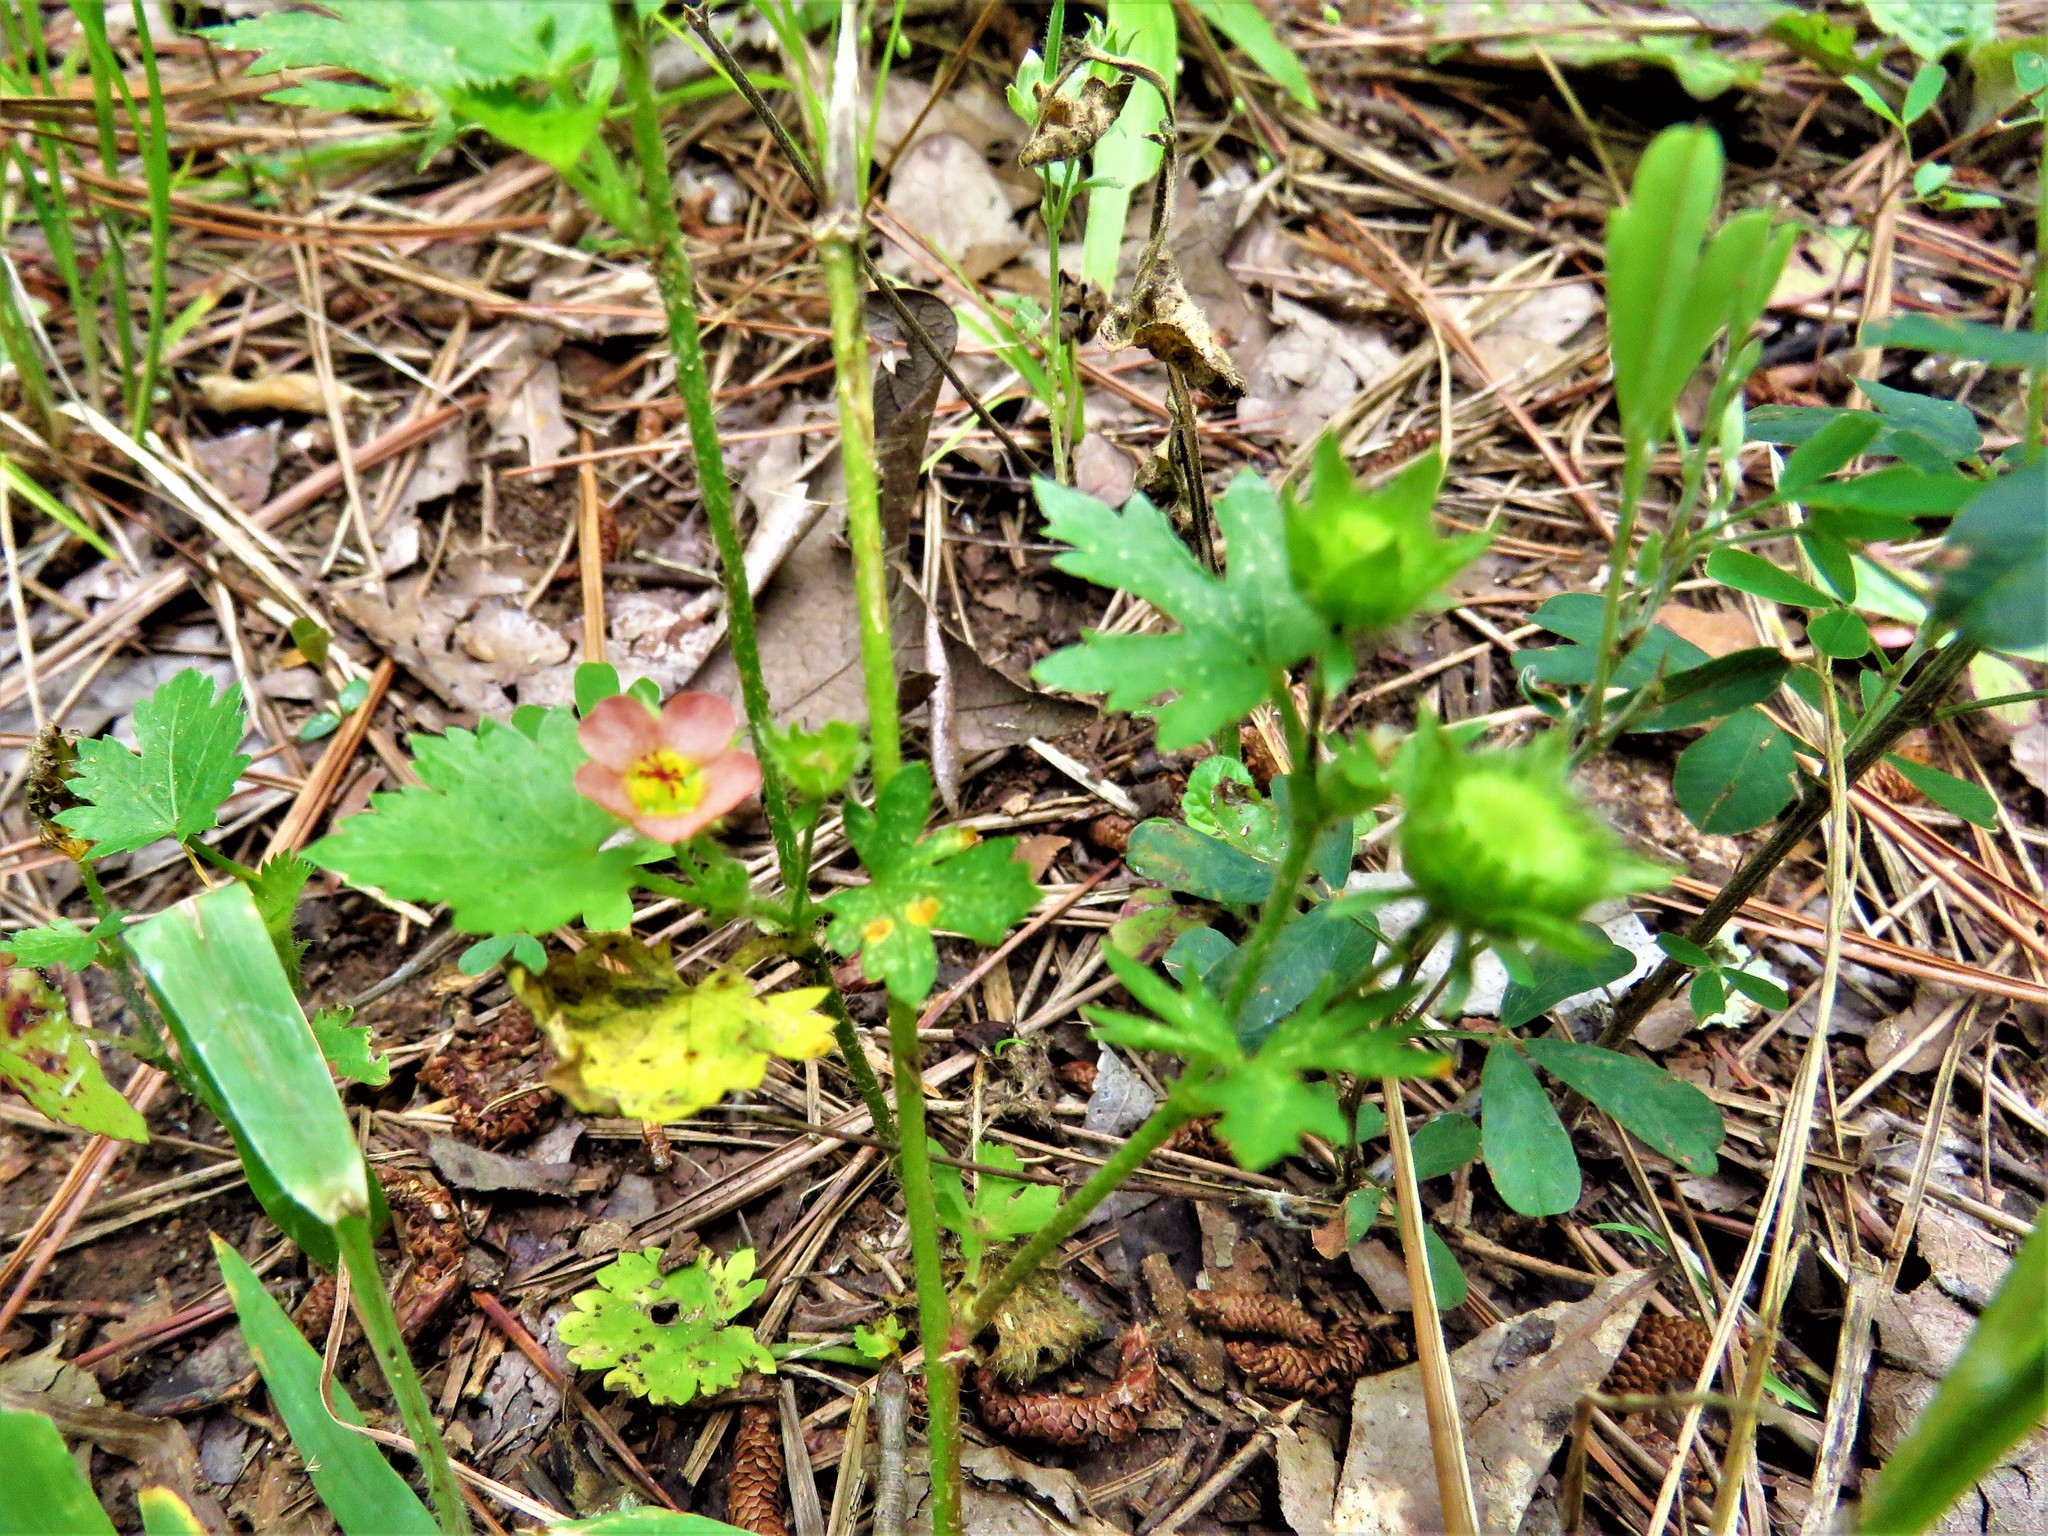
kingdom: Plantae
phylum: Tracheophyta
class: Magnoliopsida
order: Malvales
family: Malvaceae
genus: Modiola
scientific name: Modiola caroliniana
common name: Carolina bristlemallow
